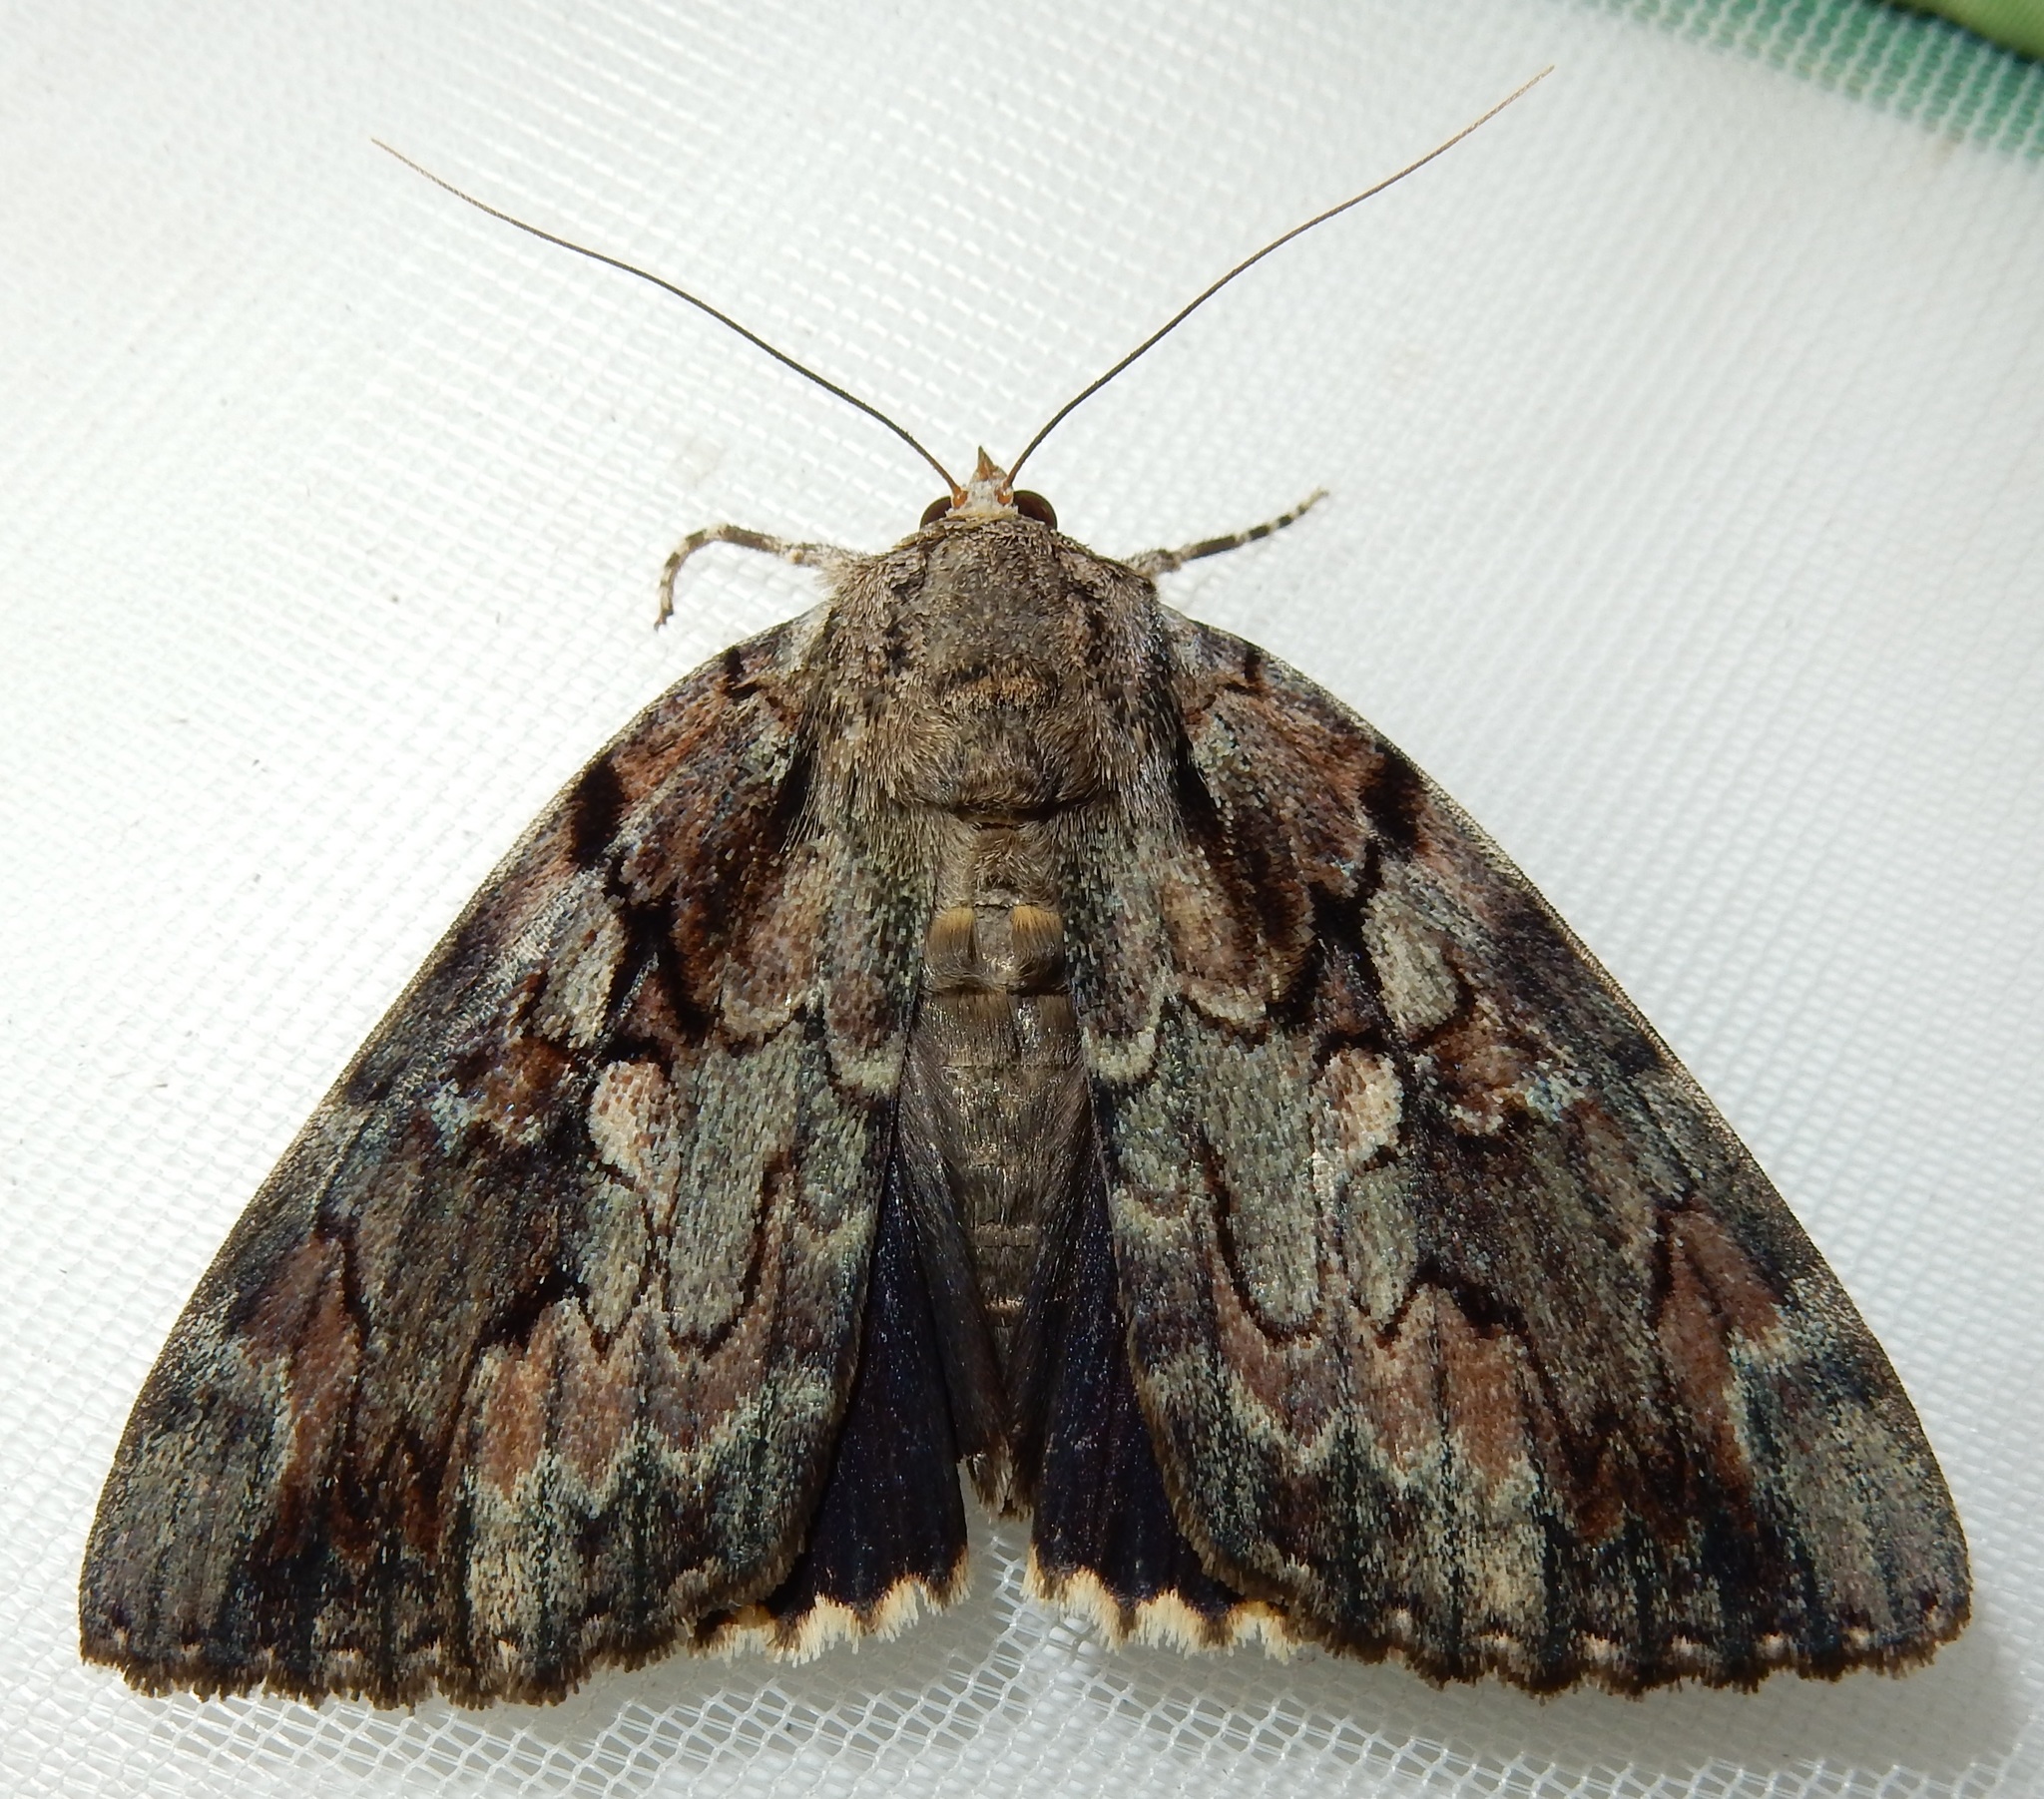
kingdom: Animalia
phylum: Arthropoda
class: Insecta
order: Lepidoptera
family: Erebidae
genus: Catocala
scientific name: Catocala agrippina
